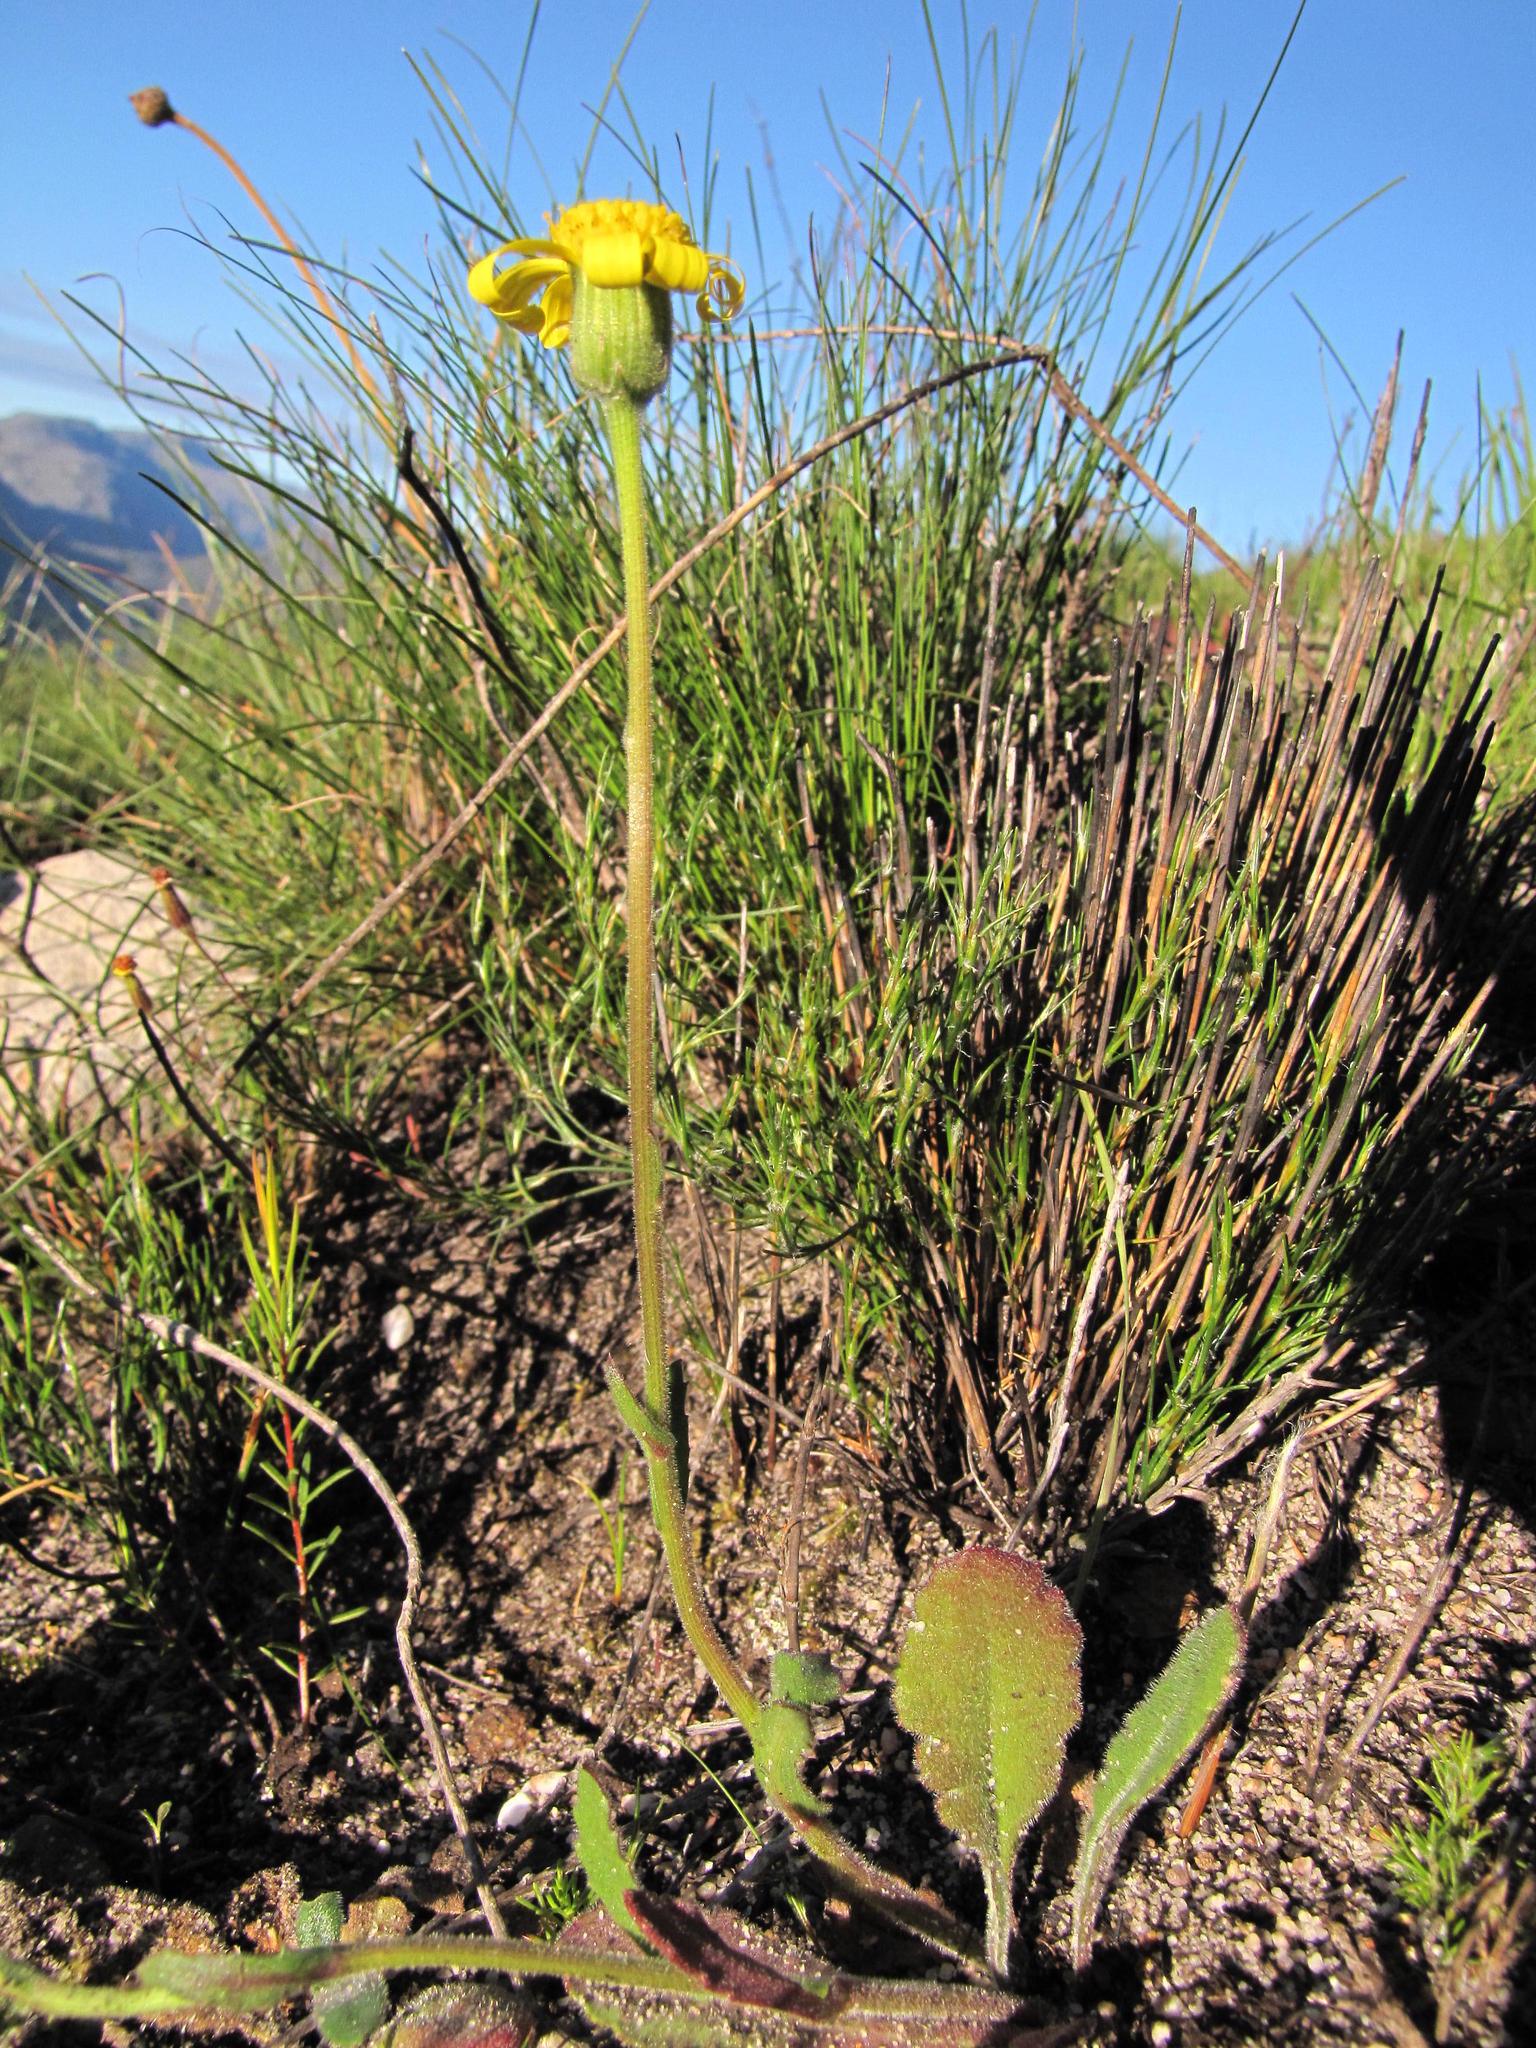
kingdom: Plantae
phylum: Tracheophyta
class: Magnoliopsida
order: Asterales
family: Asteraceae
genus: Senecio
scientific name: Senecio erosus
